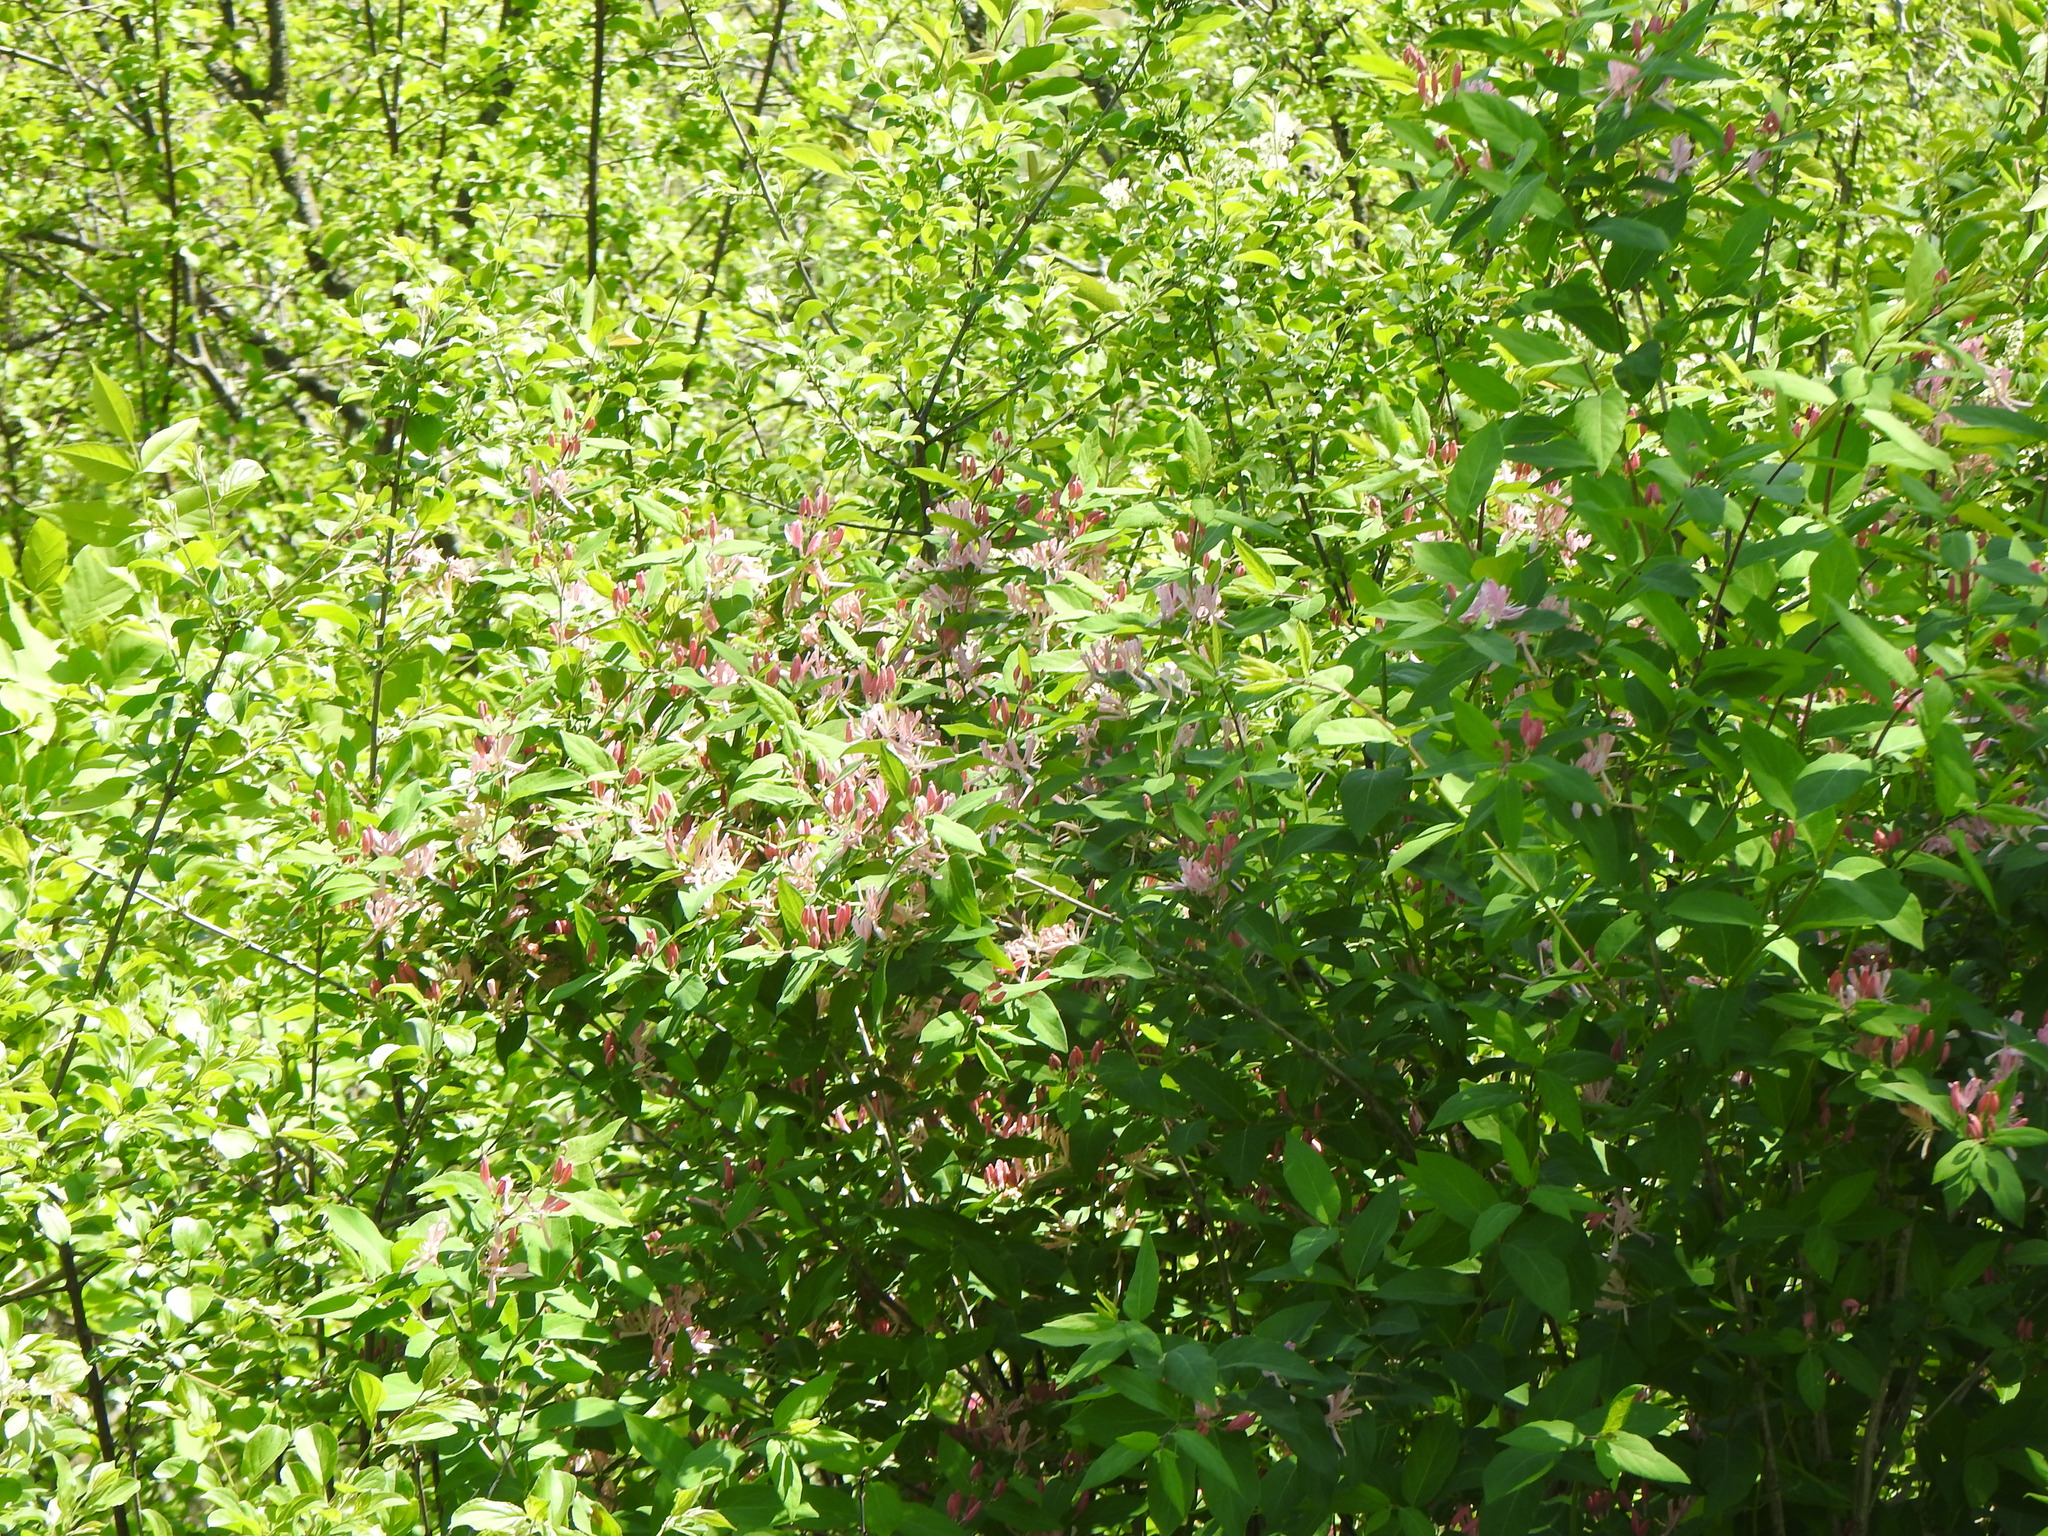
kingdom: Plantae
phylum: Tracheophyta
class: Magnoliopsida
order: Dipsacales
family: Caprifoliaceae
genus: Lonicera
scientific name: Lonicera
